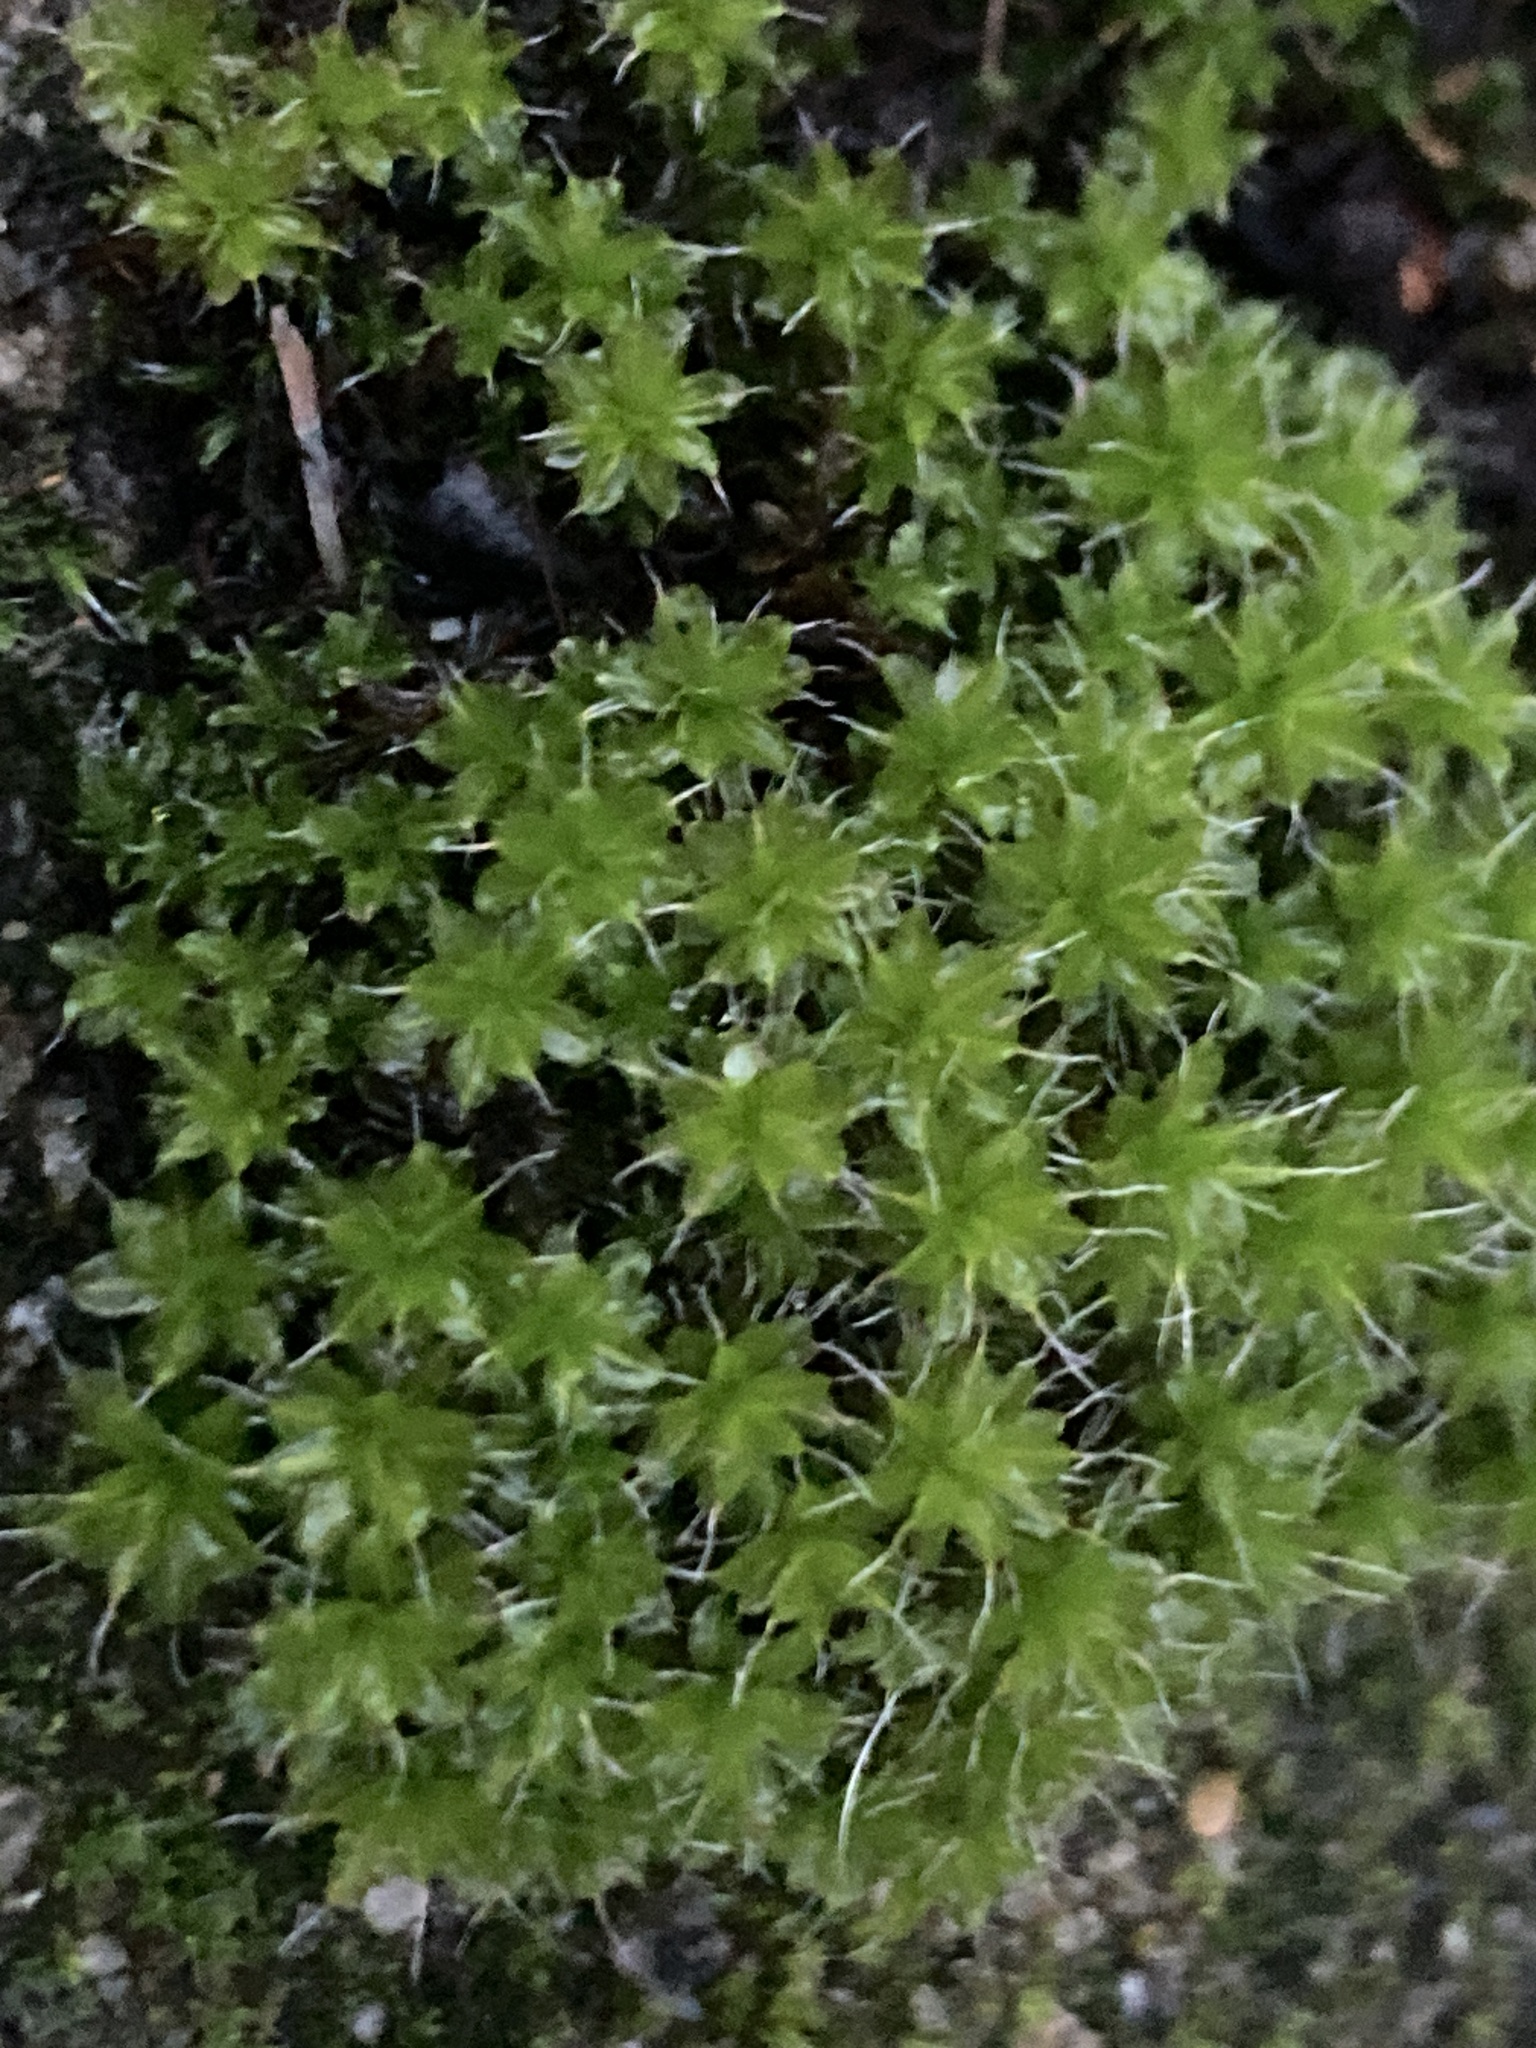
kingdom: Plantae
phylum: Bryophyta
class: Bryopsida
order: Pottiales
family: Pottiaceae
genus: Syntrichia
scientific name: Syntrichia montana
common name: Intermediate screw-moss
